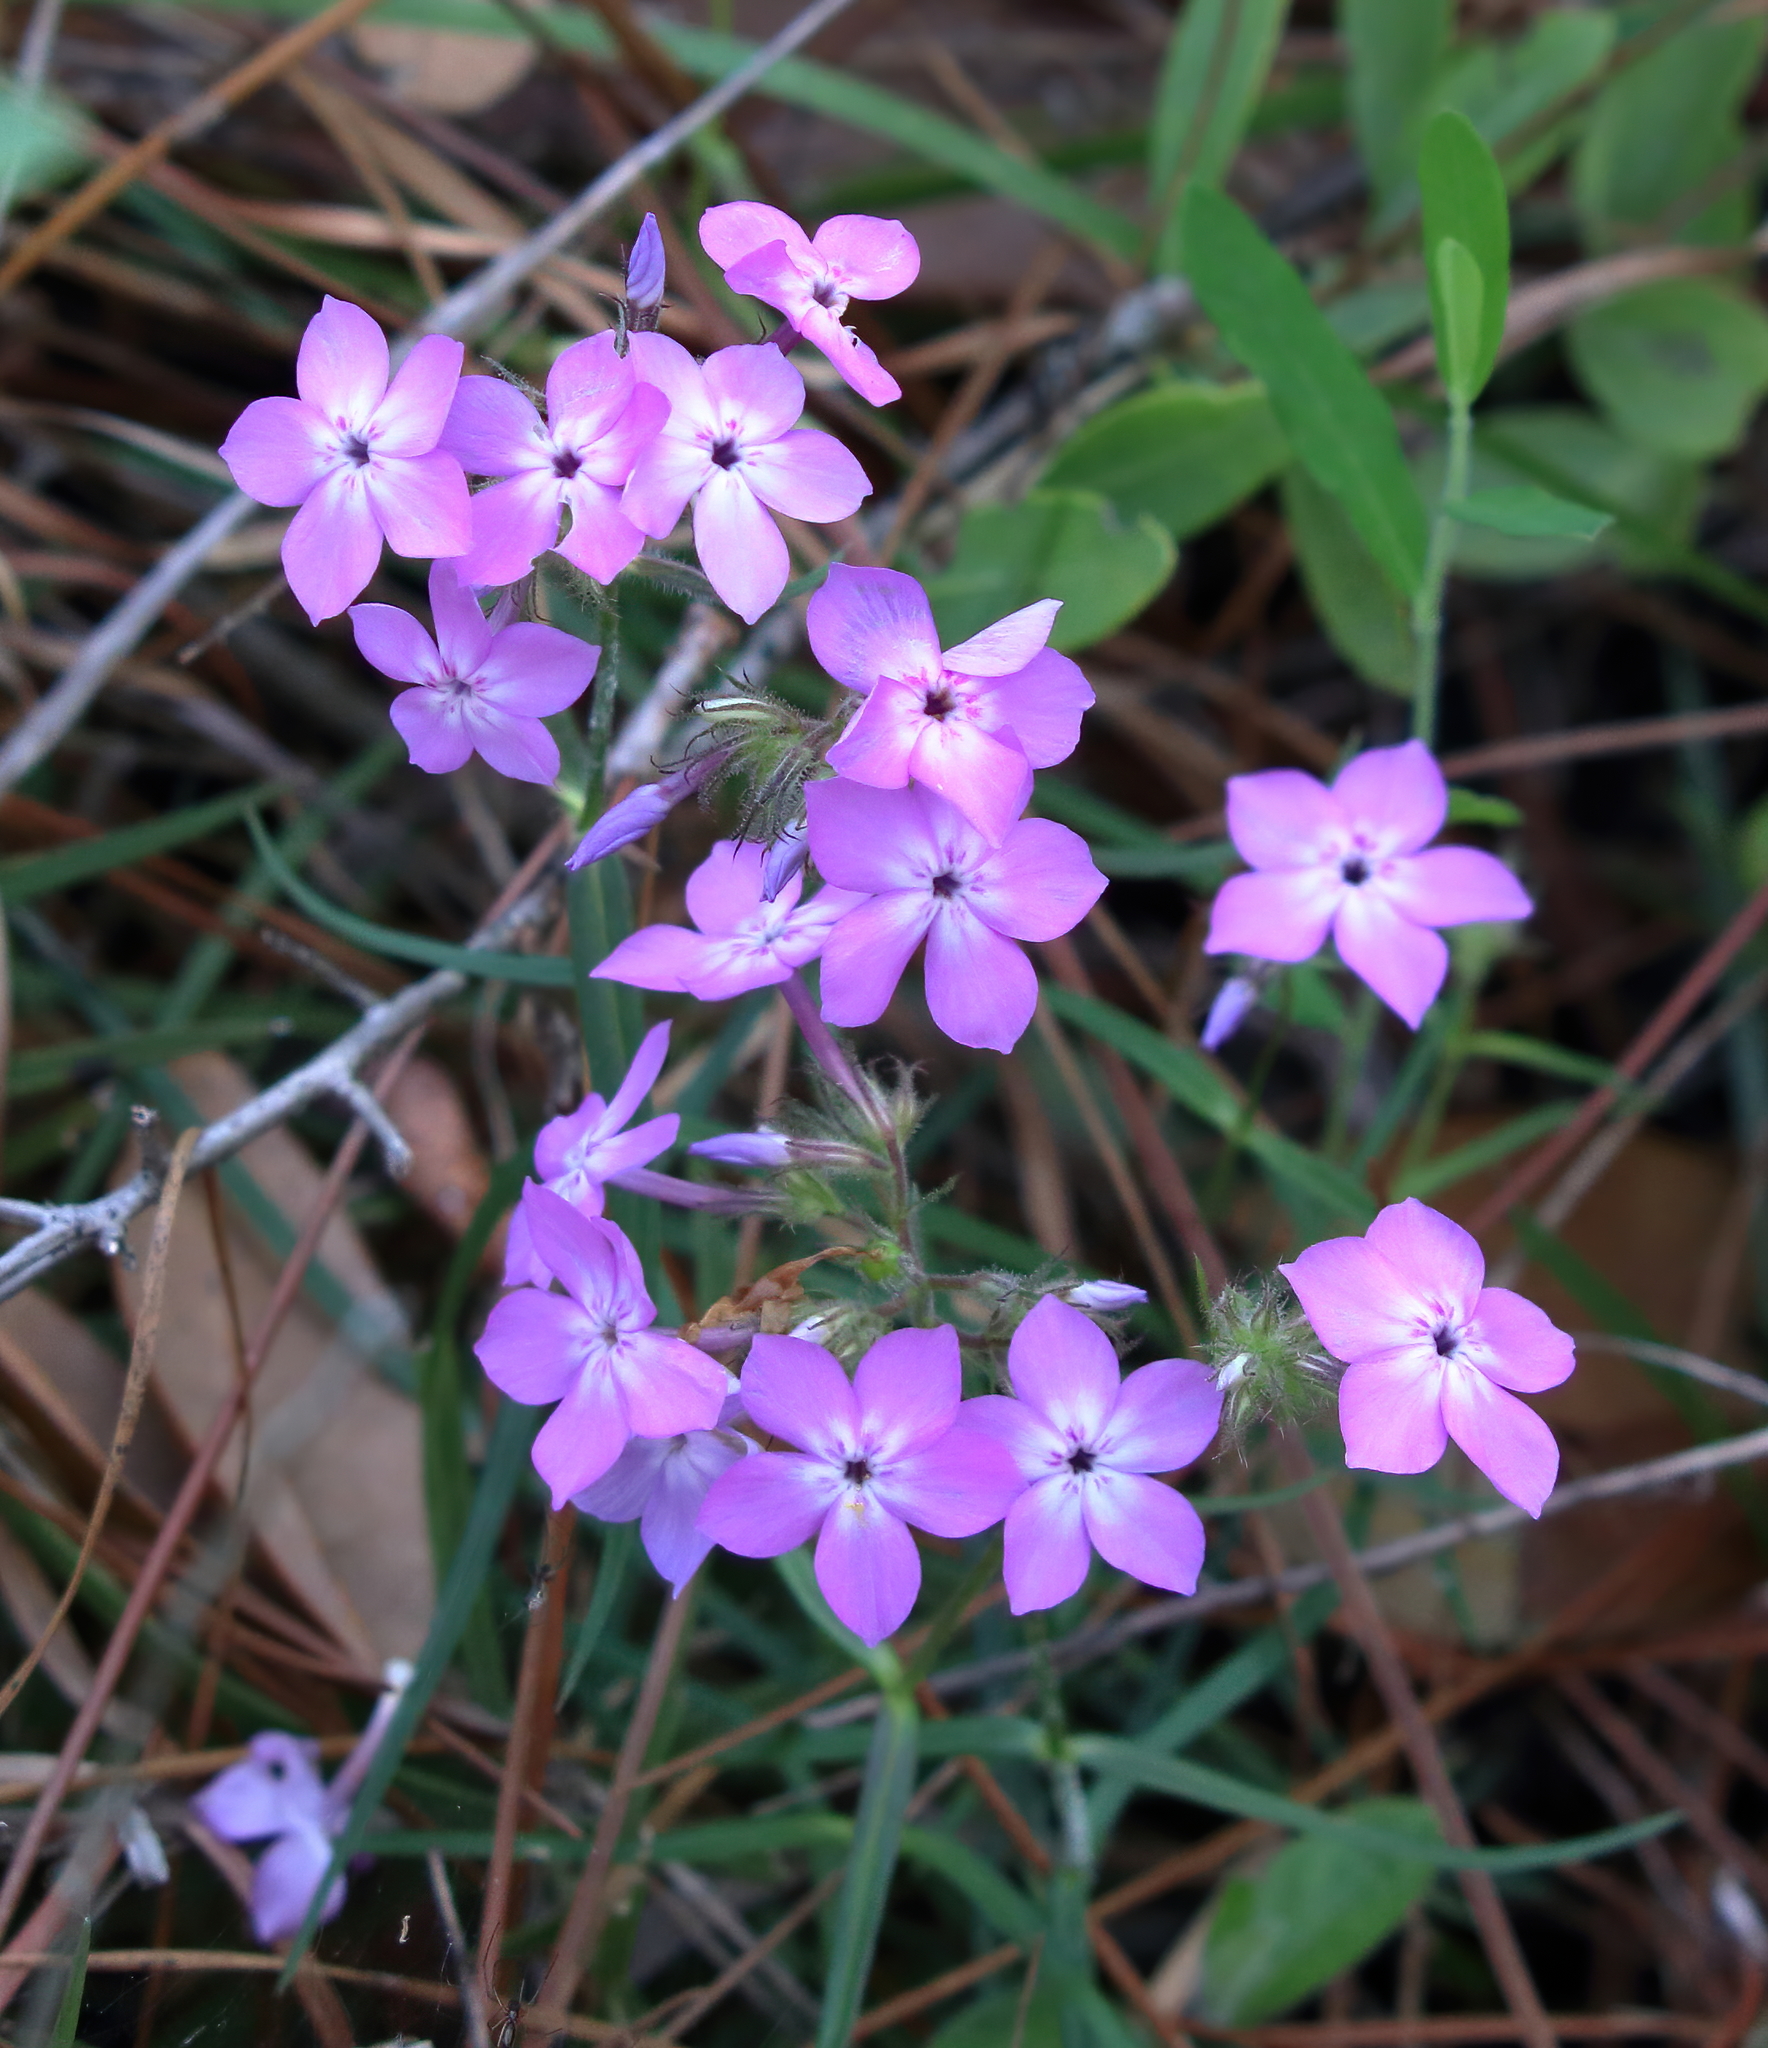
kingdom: Plantae
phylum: Tracheophyta
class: Magnoliopsida
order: Ericales
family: Polemoniaceae
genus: Phlox
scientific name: Phlox pilosa
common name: Prairie phlox
